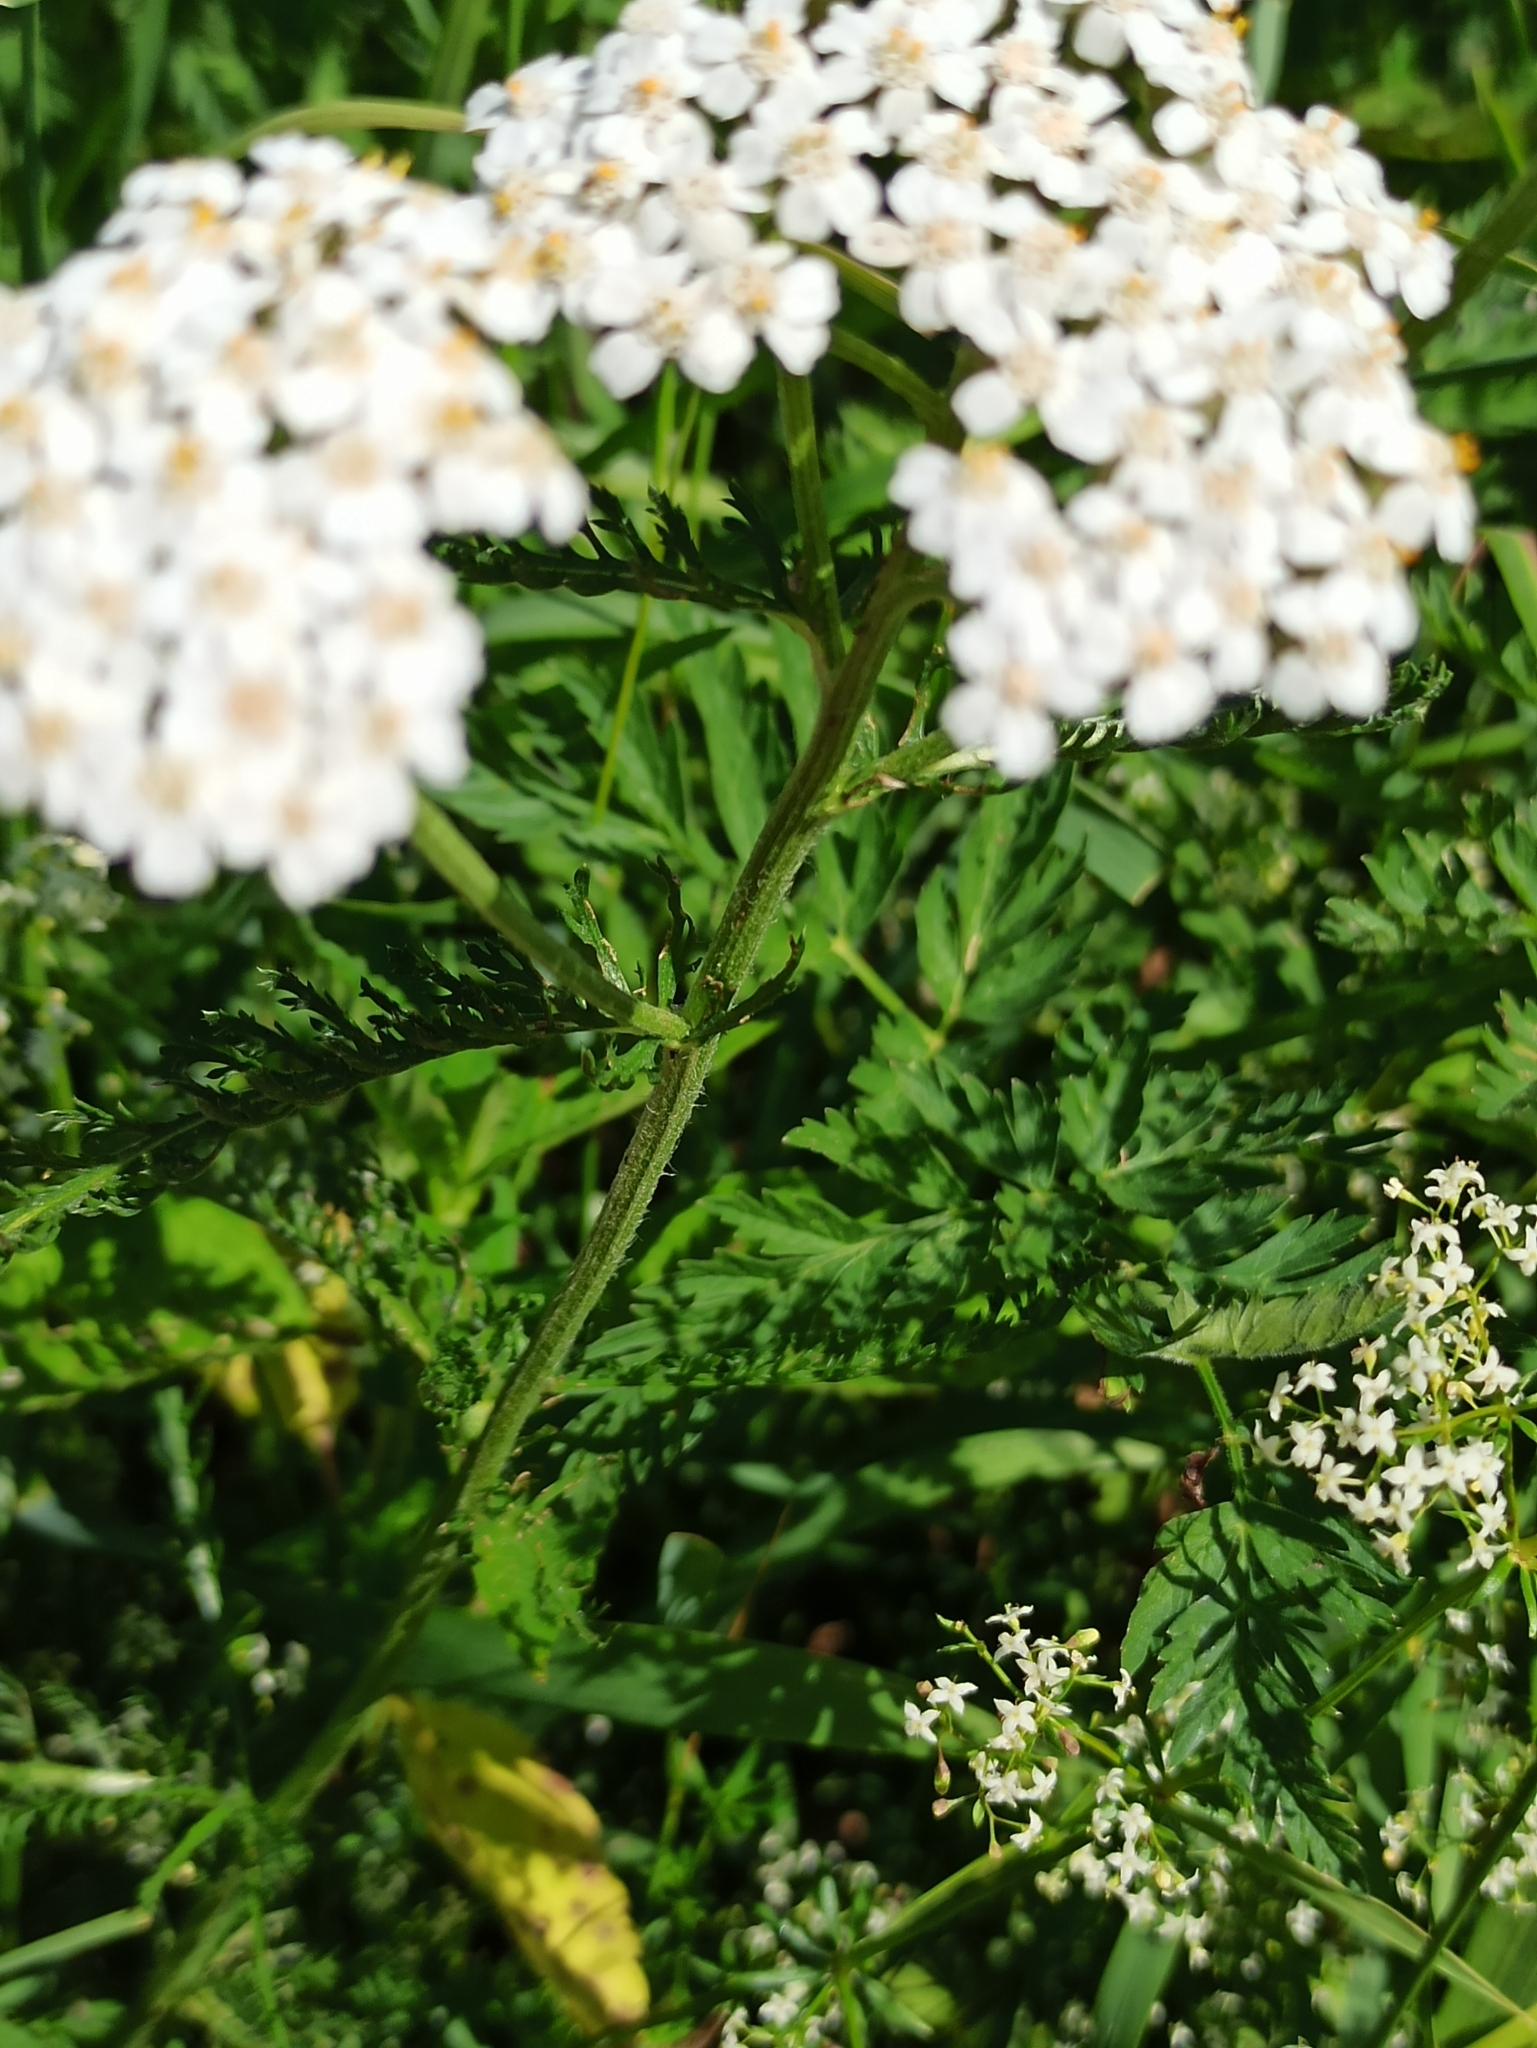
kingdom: Plantae
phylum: Tracheophyta
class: Magnoliopsida
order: Asterales
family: Asteraceae
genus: Achillea
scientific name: Achillea millefolium
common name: Yarrow
